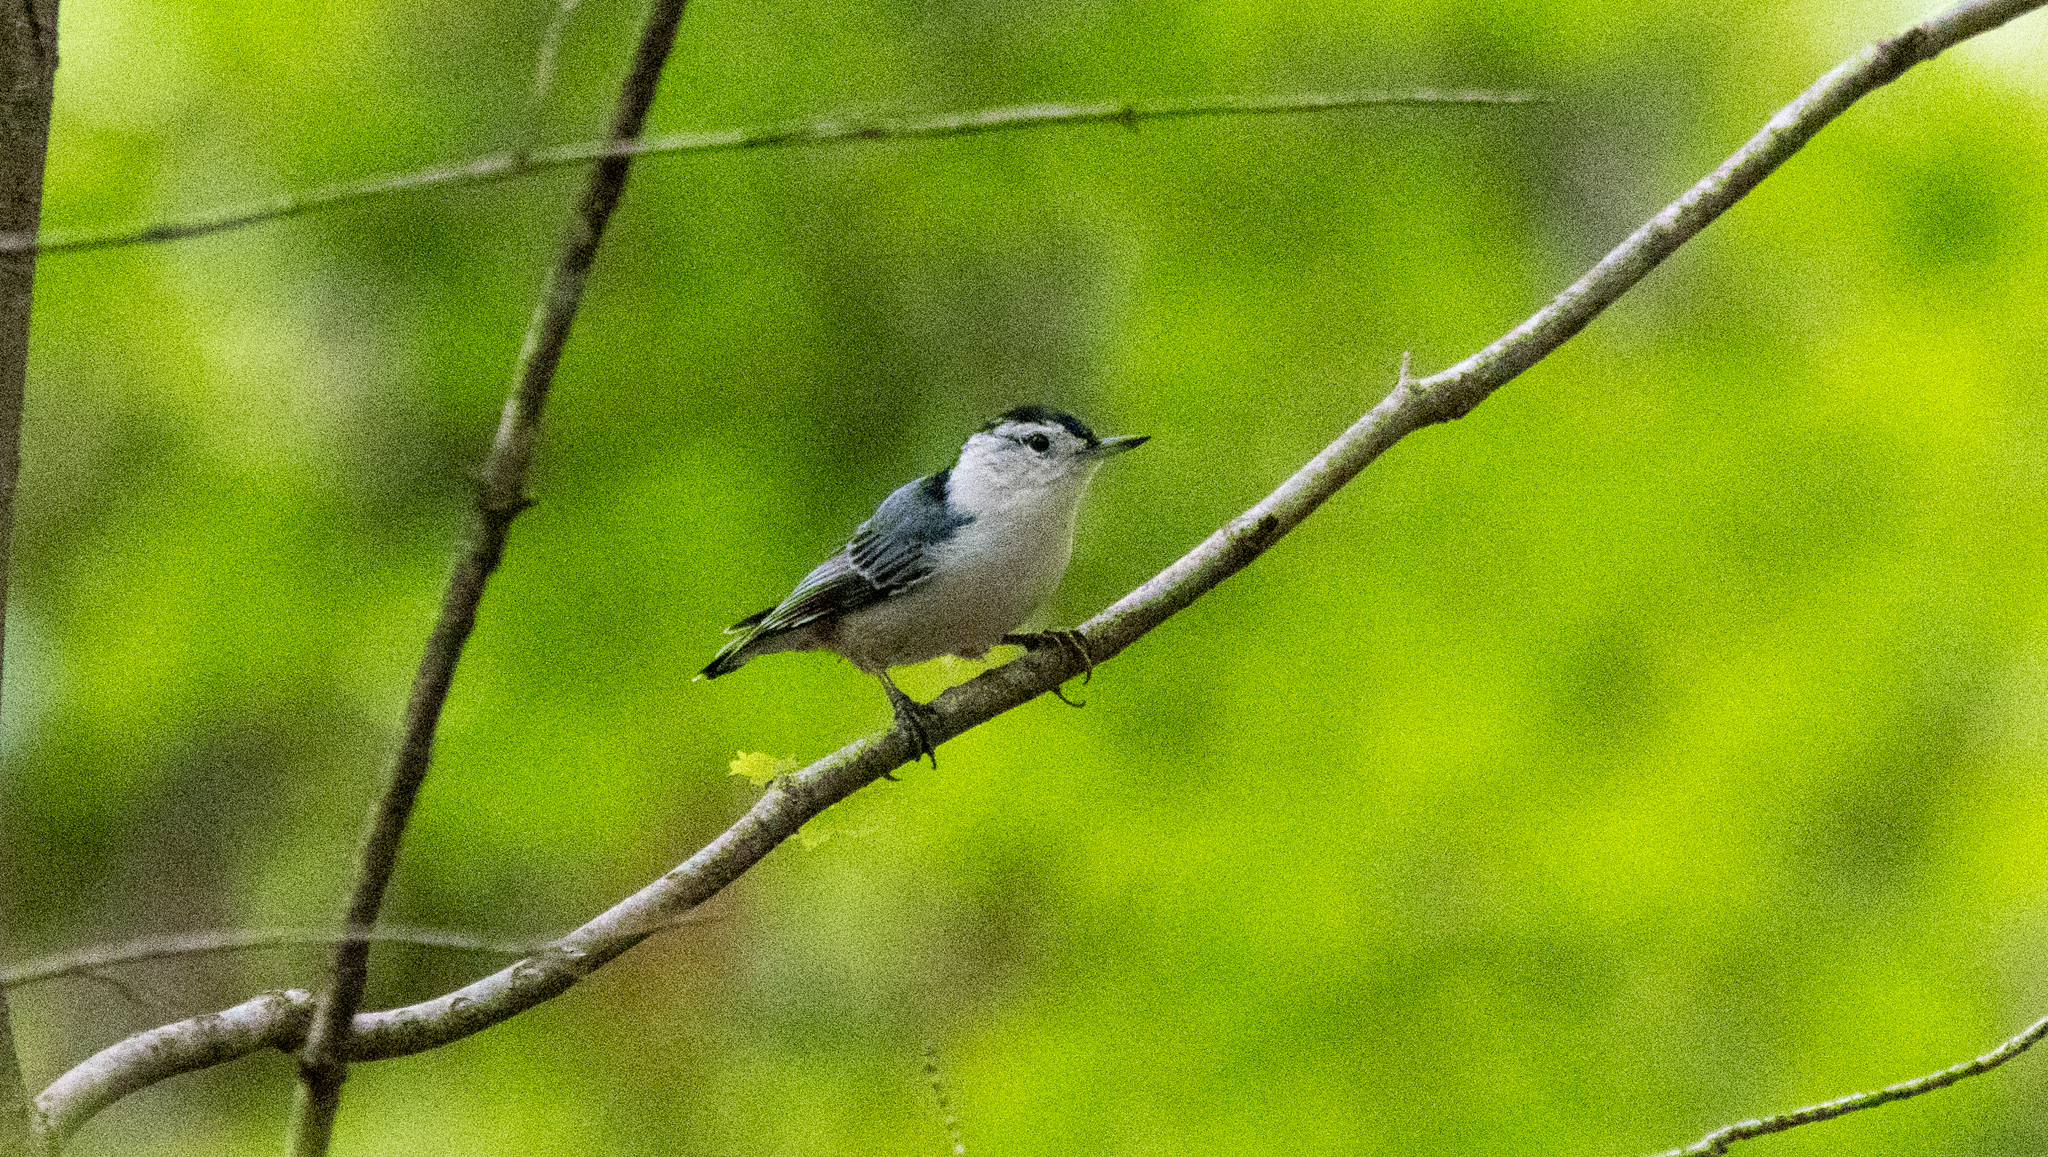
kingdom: Animalia
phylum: Chordata
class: Aves
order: Passeriformes
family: Sittidae
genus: Sitta
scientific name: Sitta carolinensis
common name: White-breasted nuthatch
